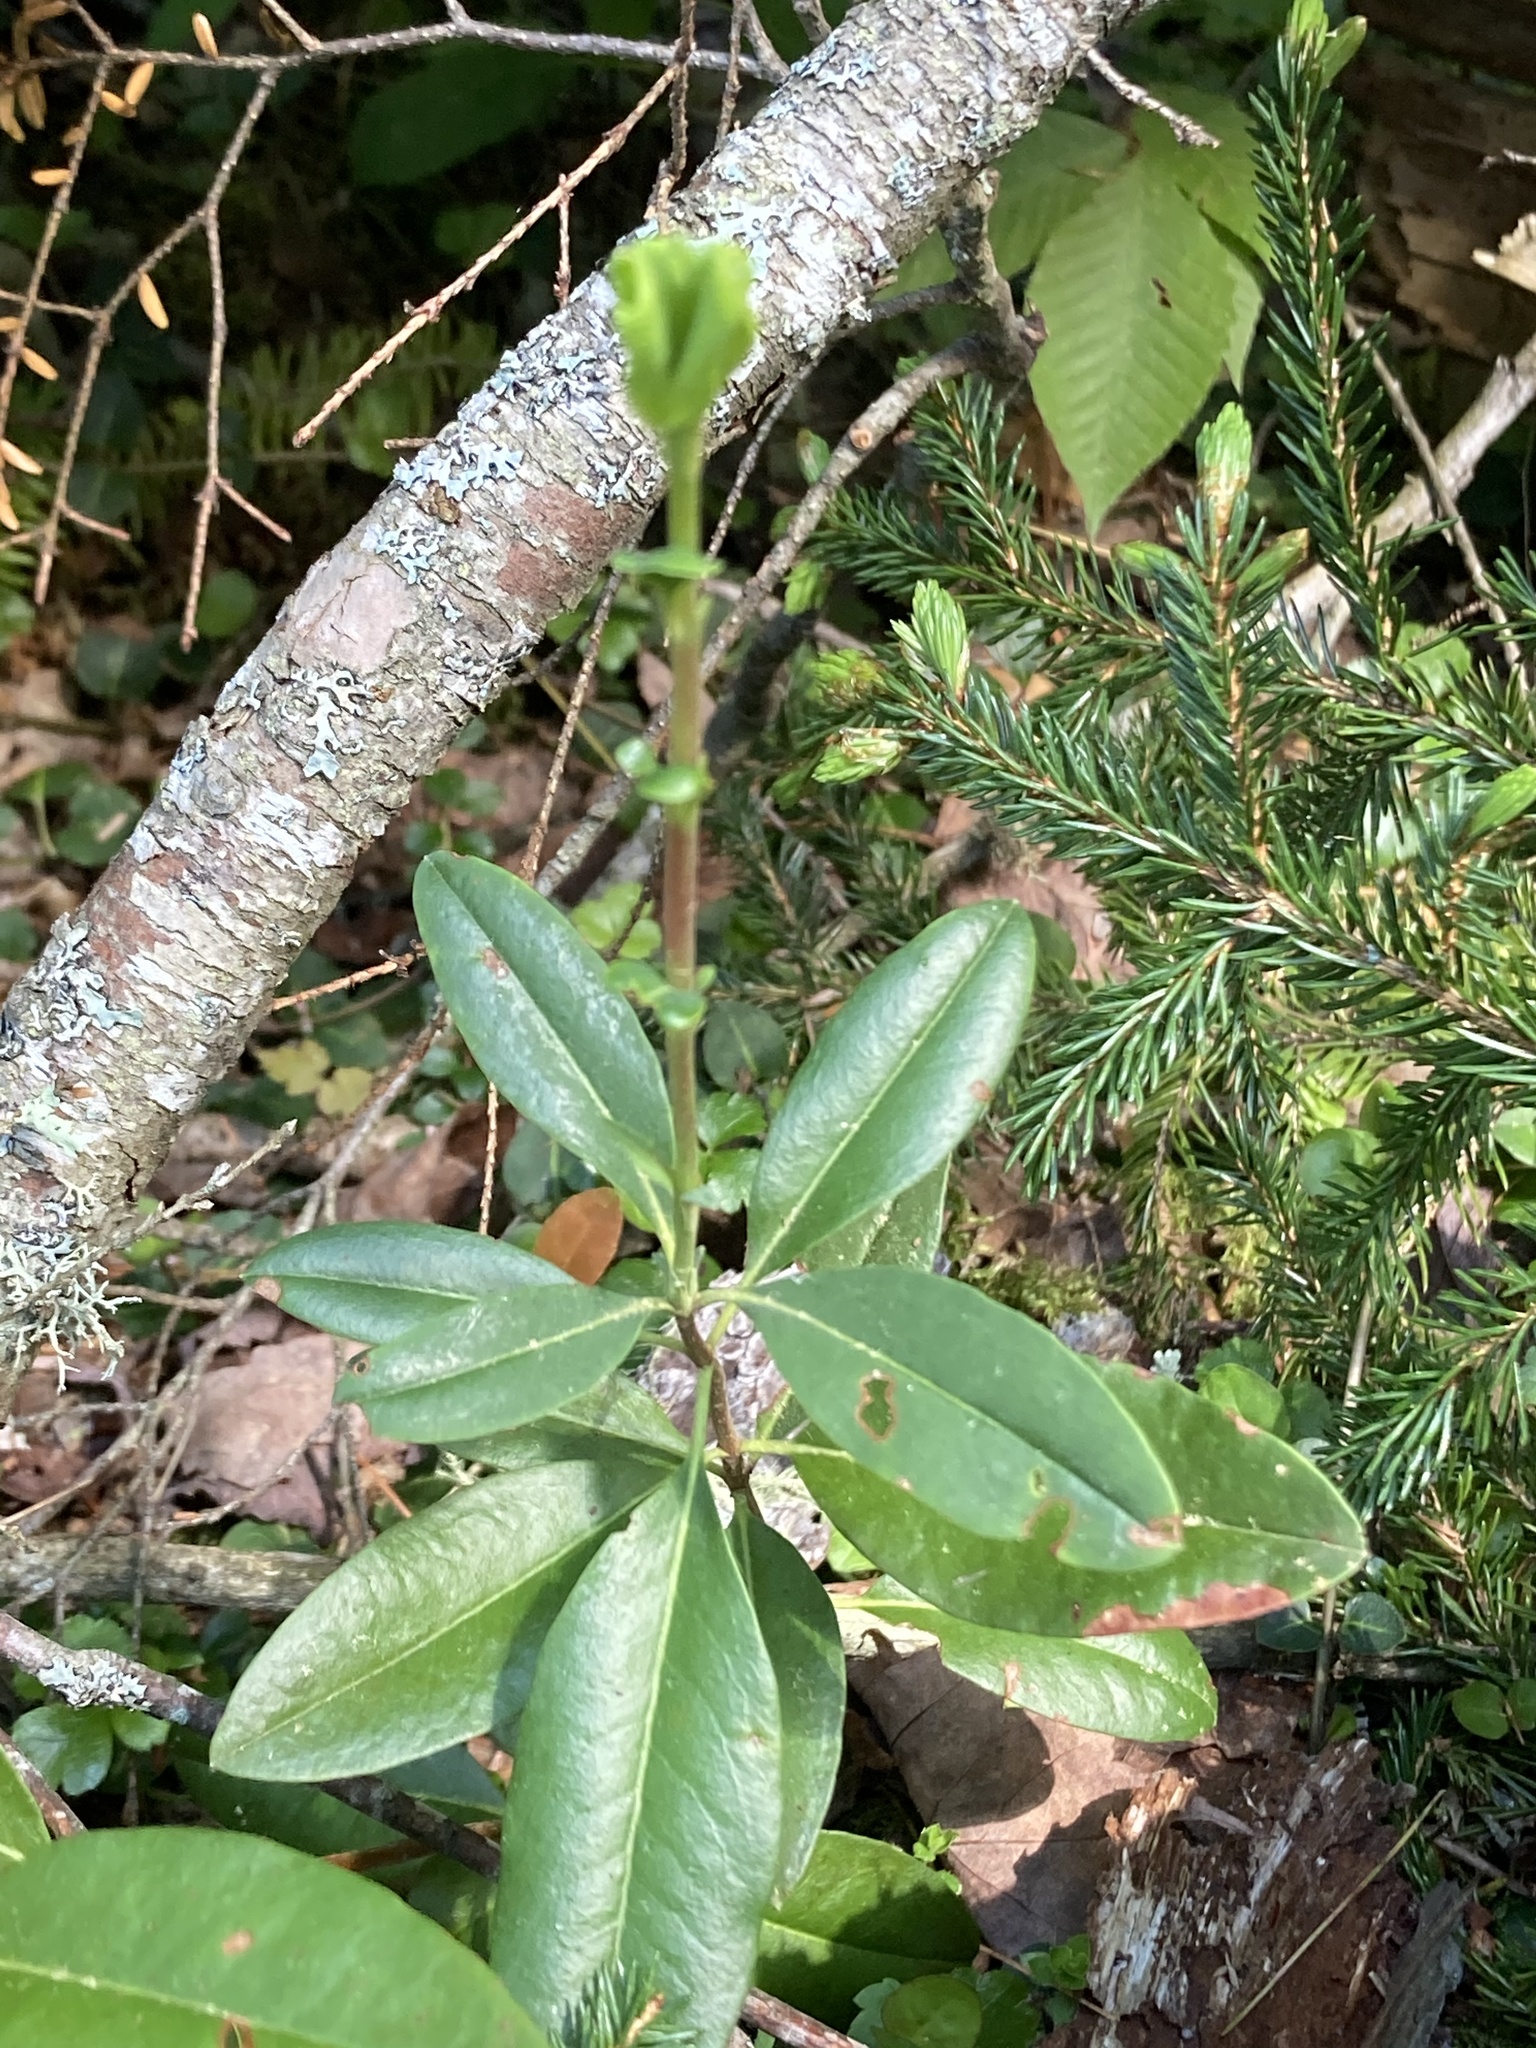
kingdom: Plantae
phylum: Tracheophyta
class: Magnoliopsida
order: Ericales
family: Ericaceae
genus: Kalmia
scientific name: Kalmia angustifolia
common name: Sheep-laurel
